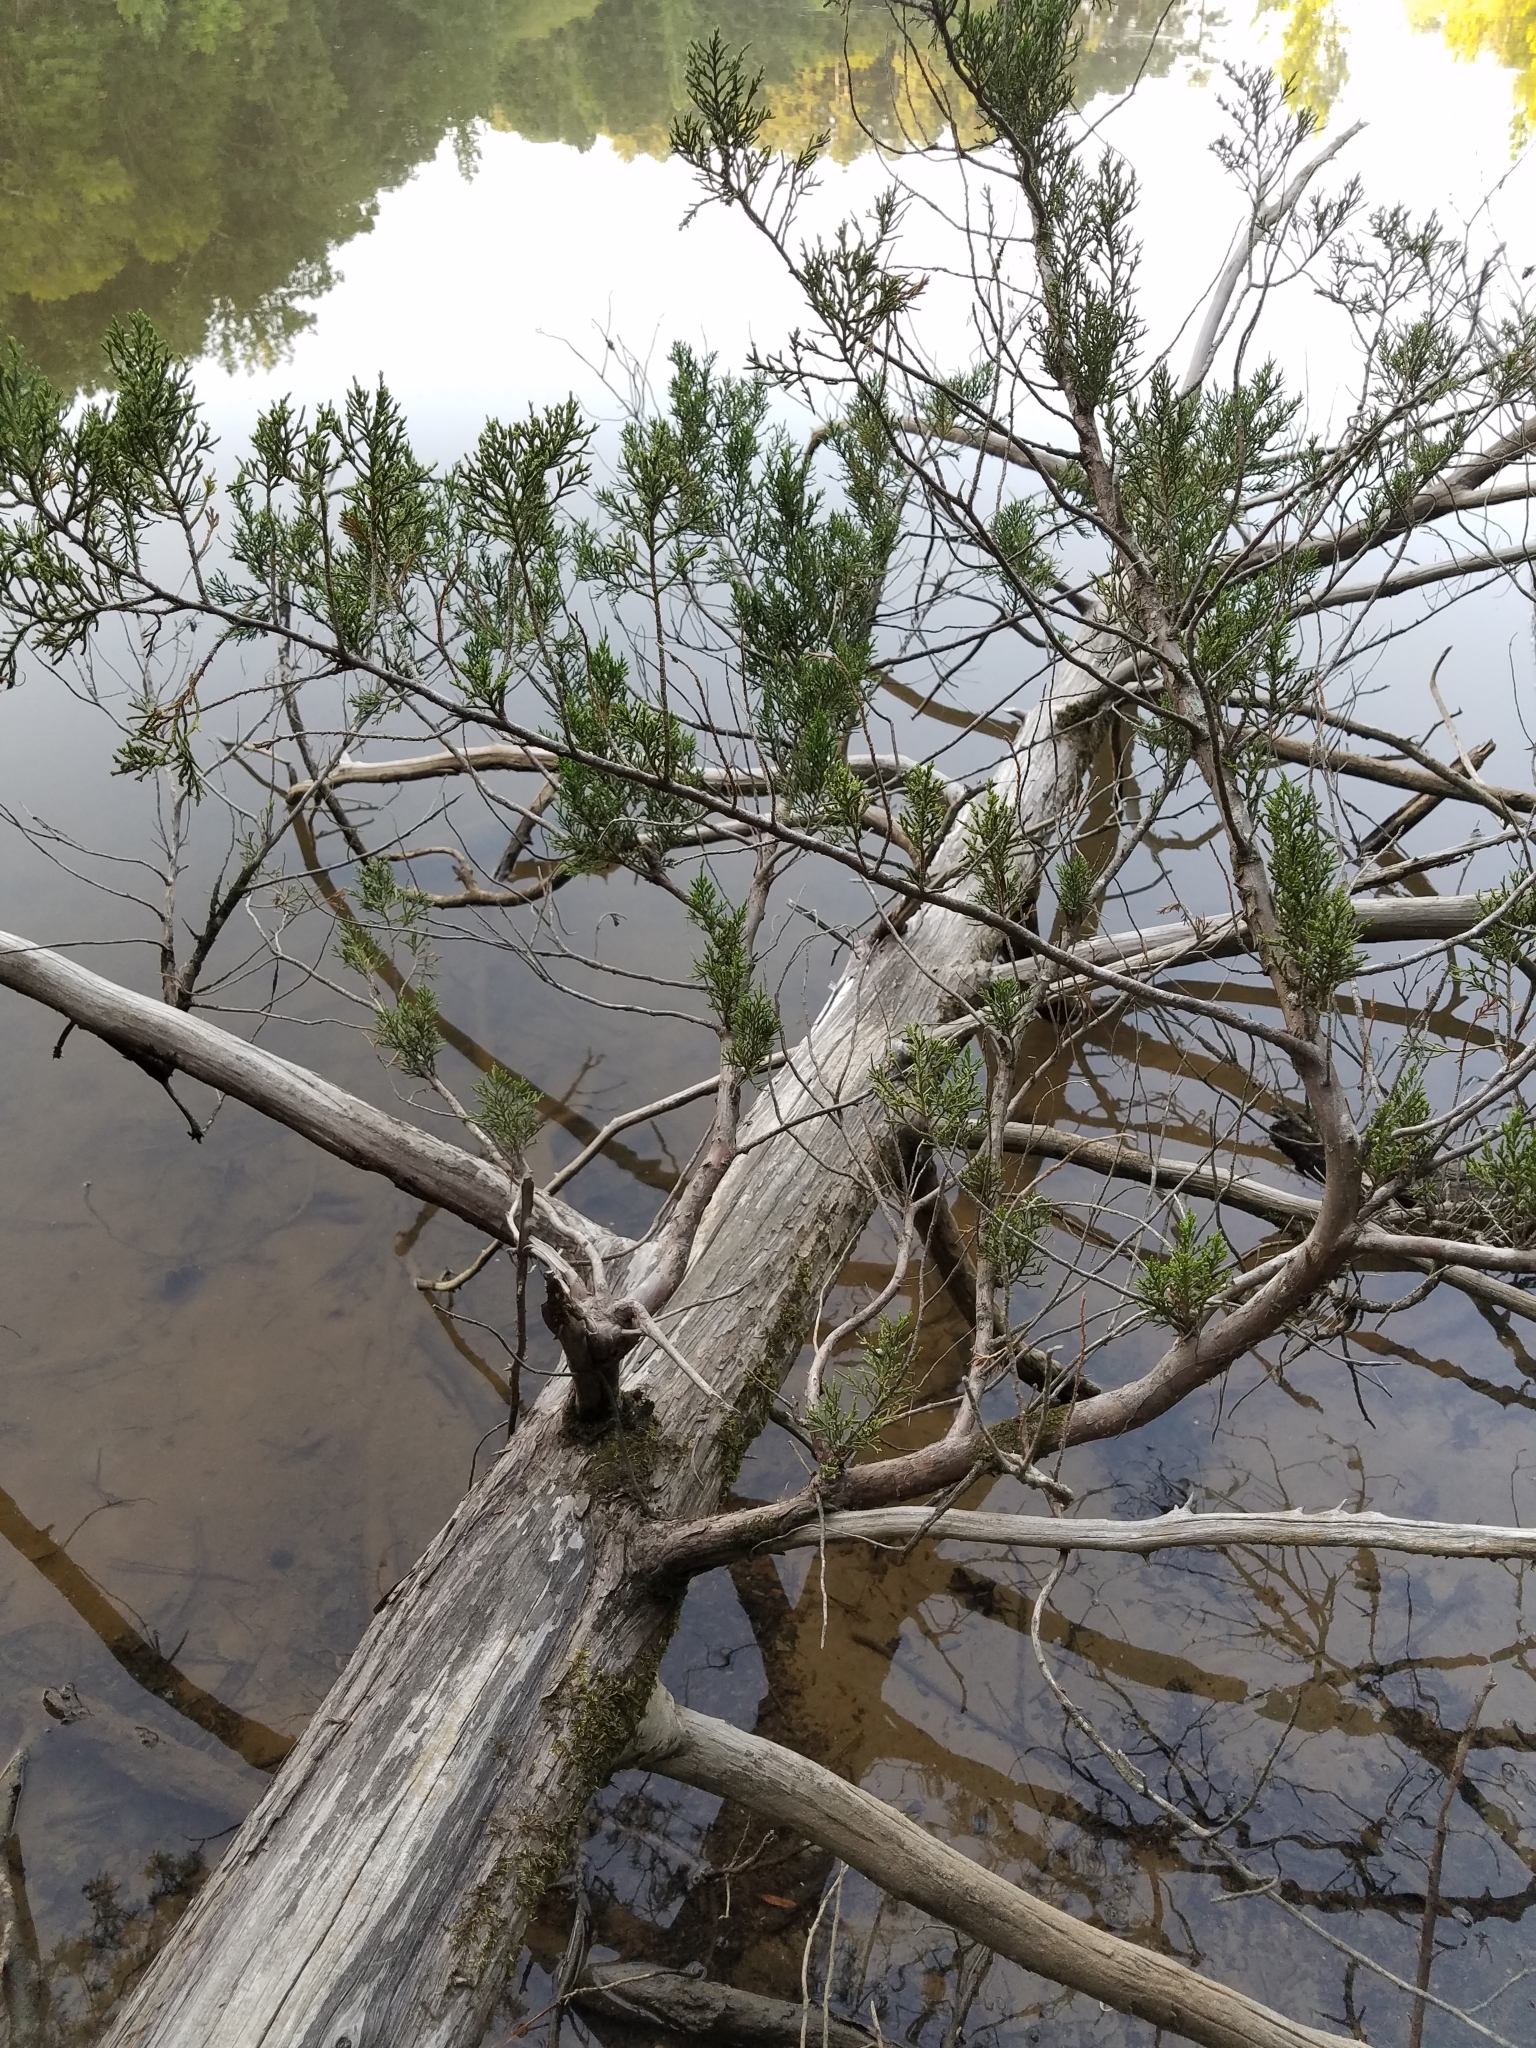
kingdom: Plantae
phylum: Tracheophyta
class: Pinopsida
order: Pinales
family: Cupressaceae
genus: Juniperus
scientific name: Juniperus virginiana
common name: Red juniper
